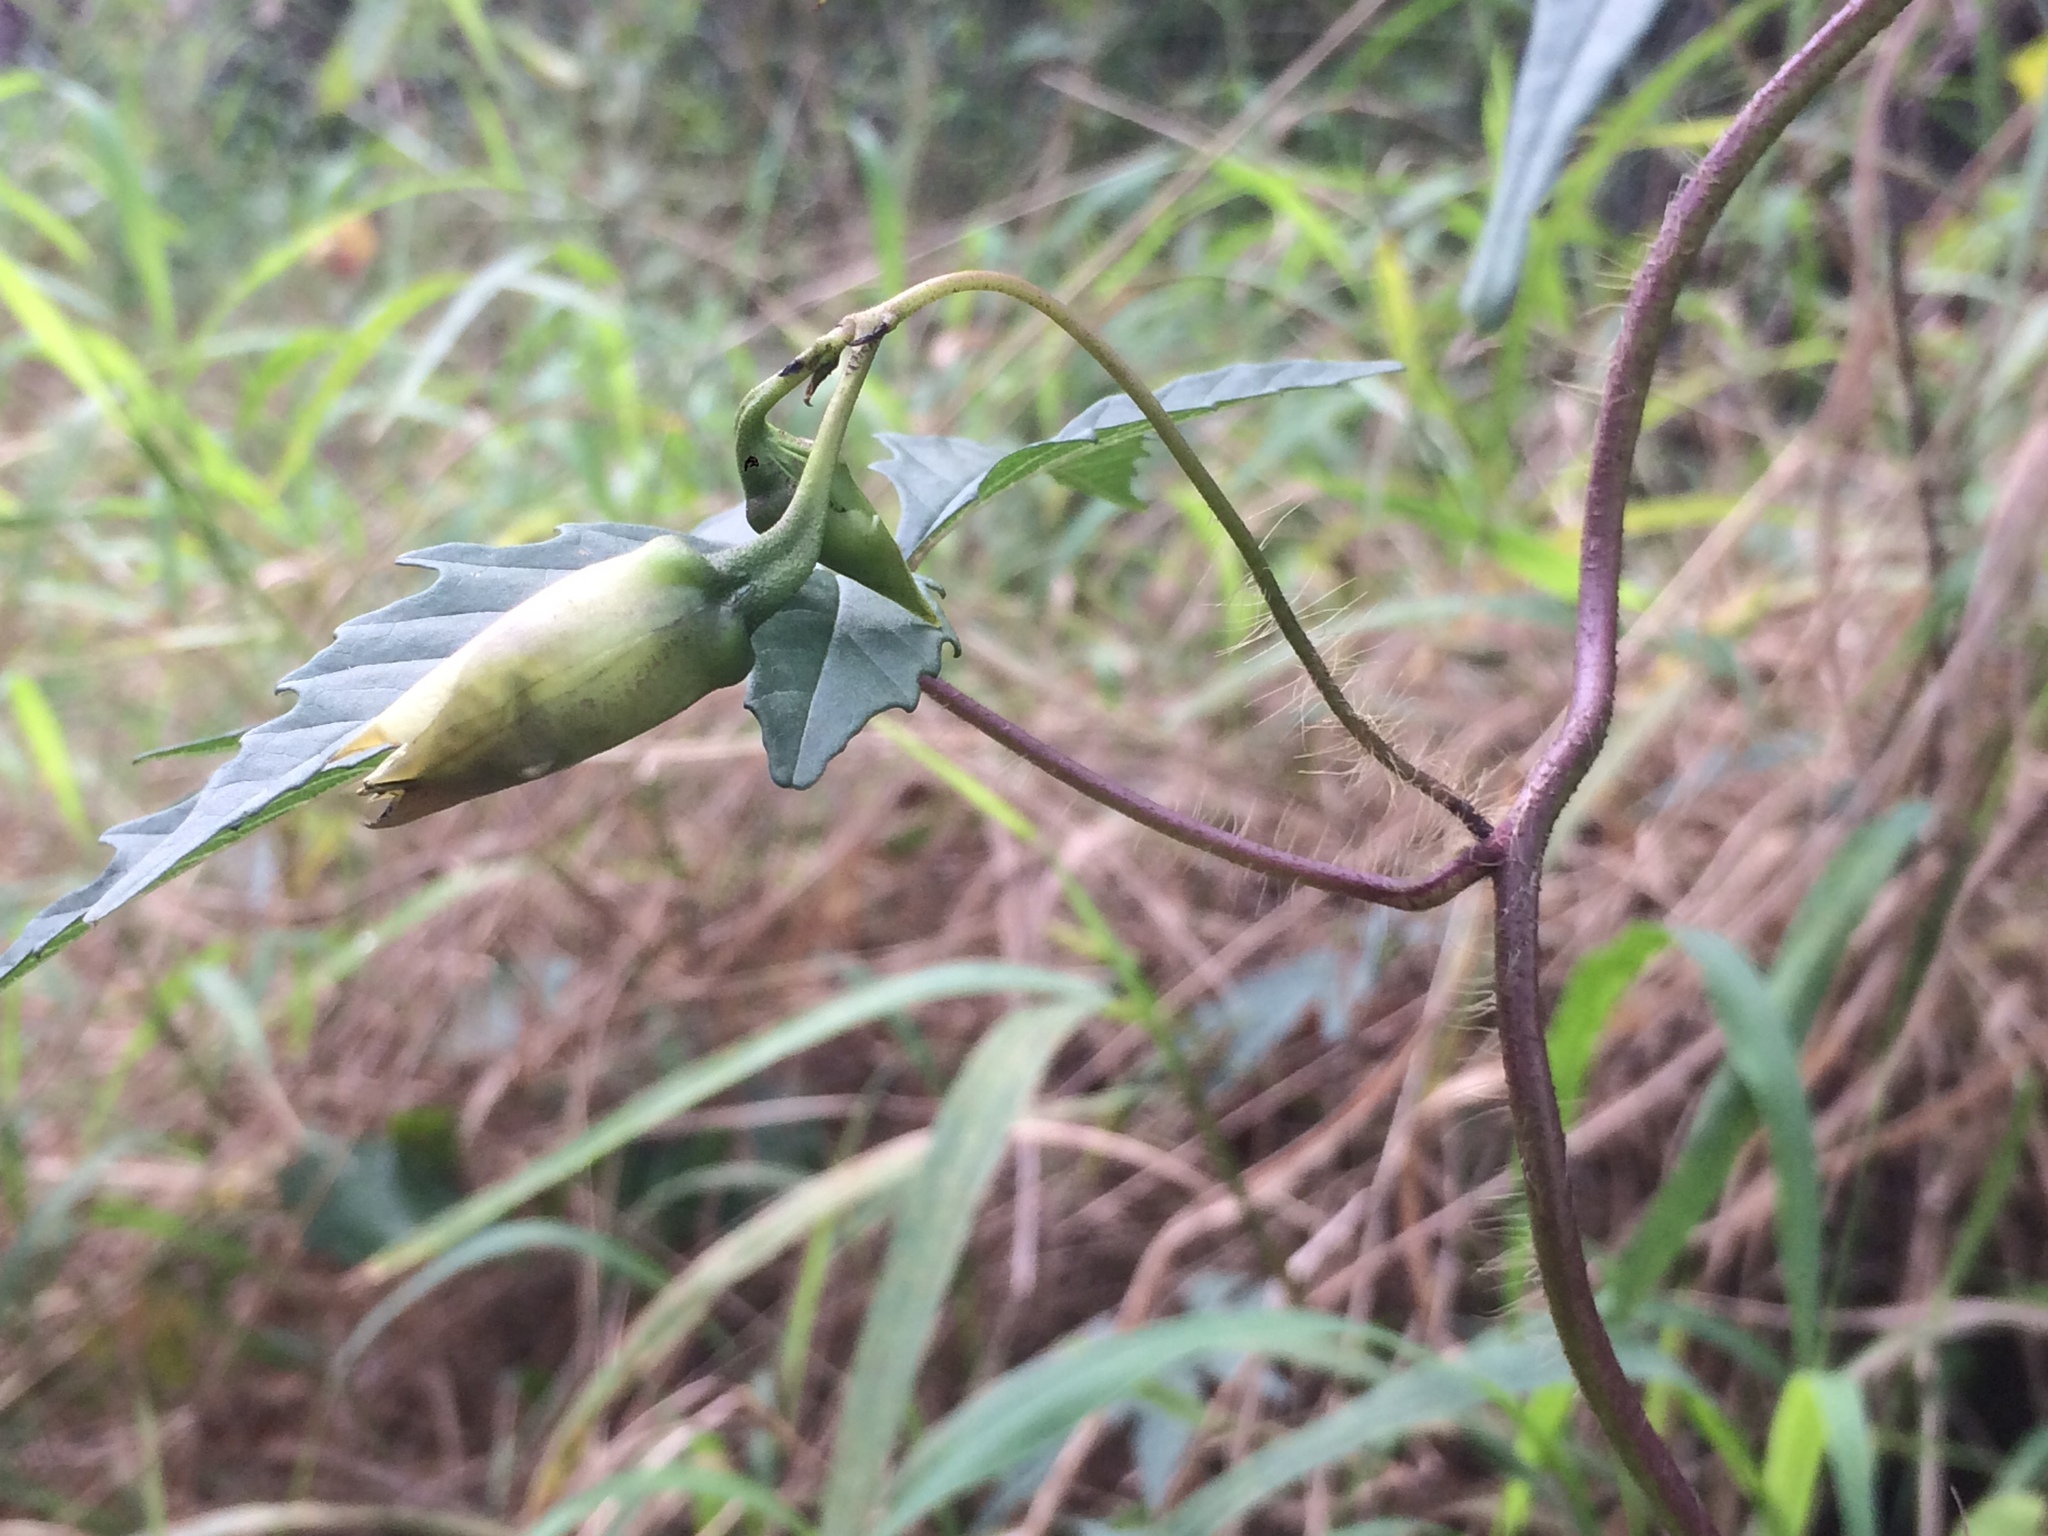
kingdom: Plantae
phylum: Tracheophyta
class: Magnoliopsida
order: Solanales
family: Convolvulaceae
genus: Distimake
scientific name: Distimake dissectus
